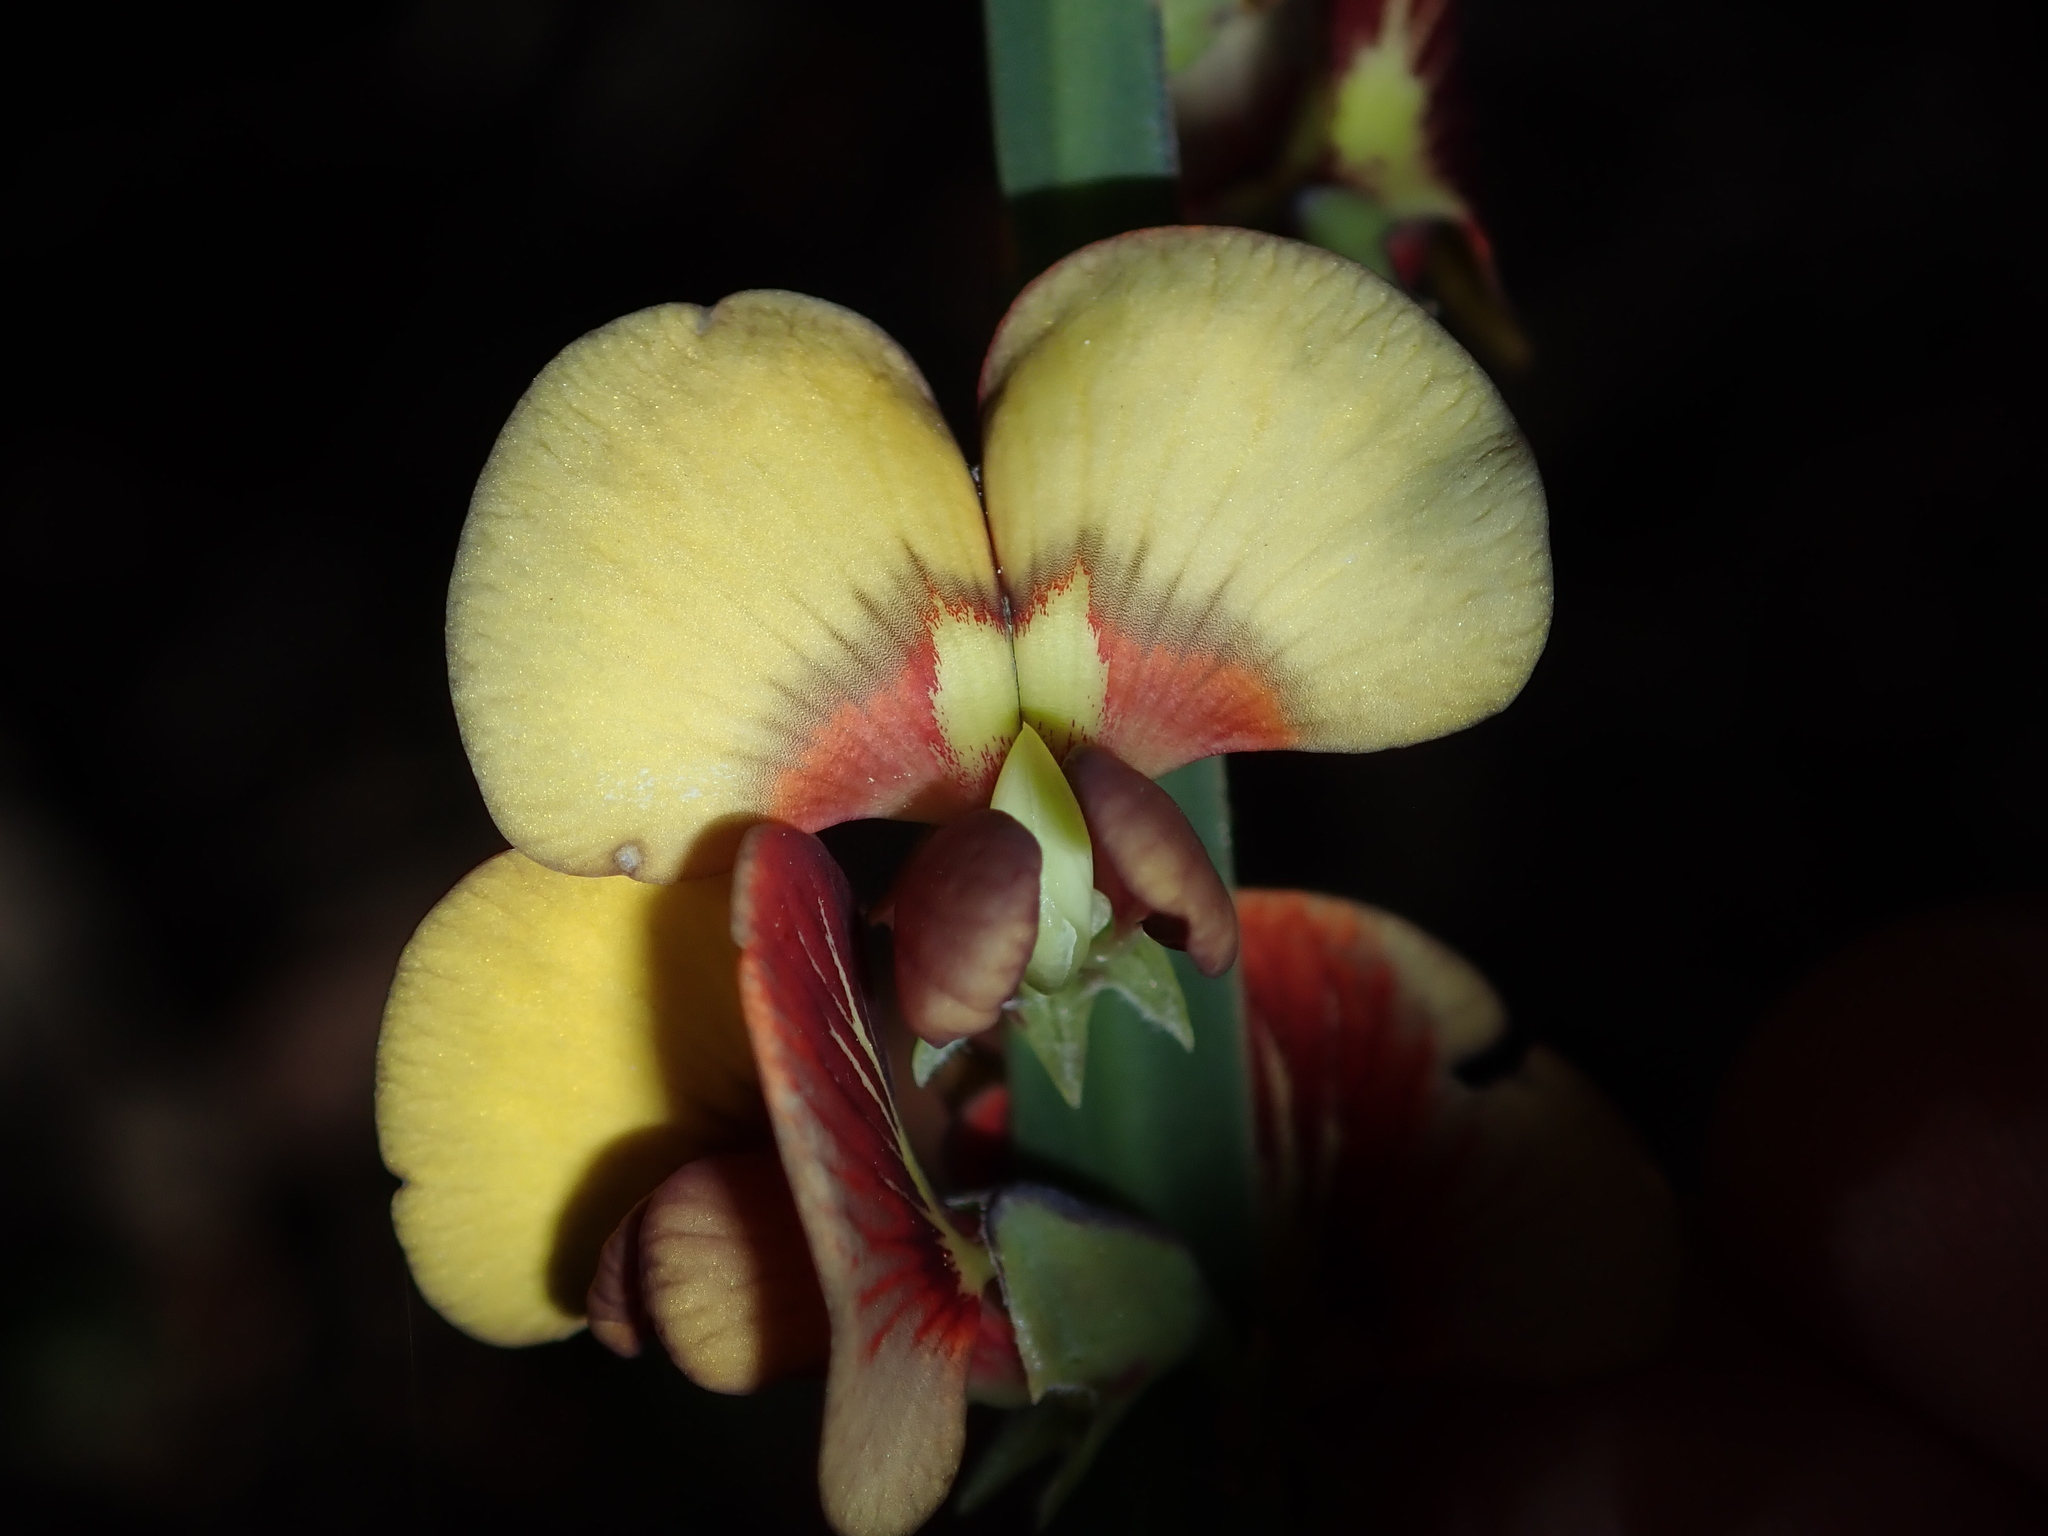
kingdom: Plantae
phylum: Tracheophyta
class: Magnoliopsida
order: Fabales
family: Fabaceae
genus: Bossiaea
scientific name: Bossiaea scolopendria
